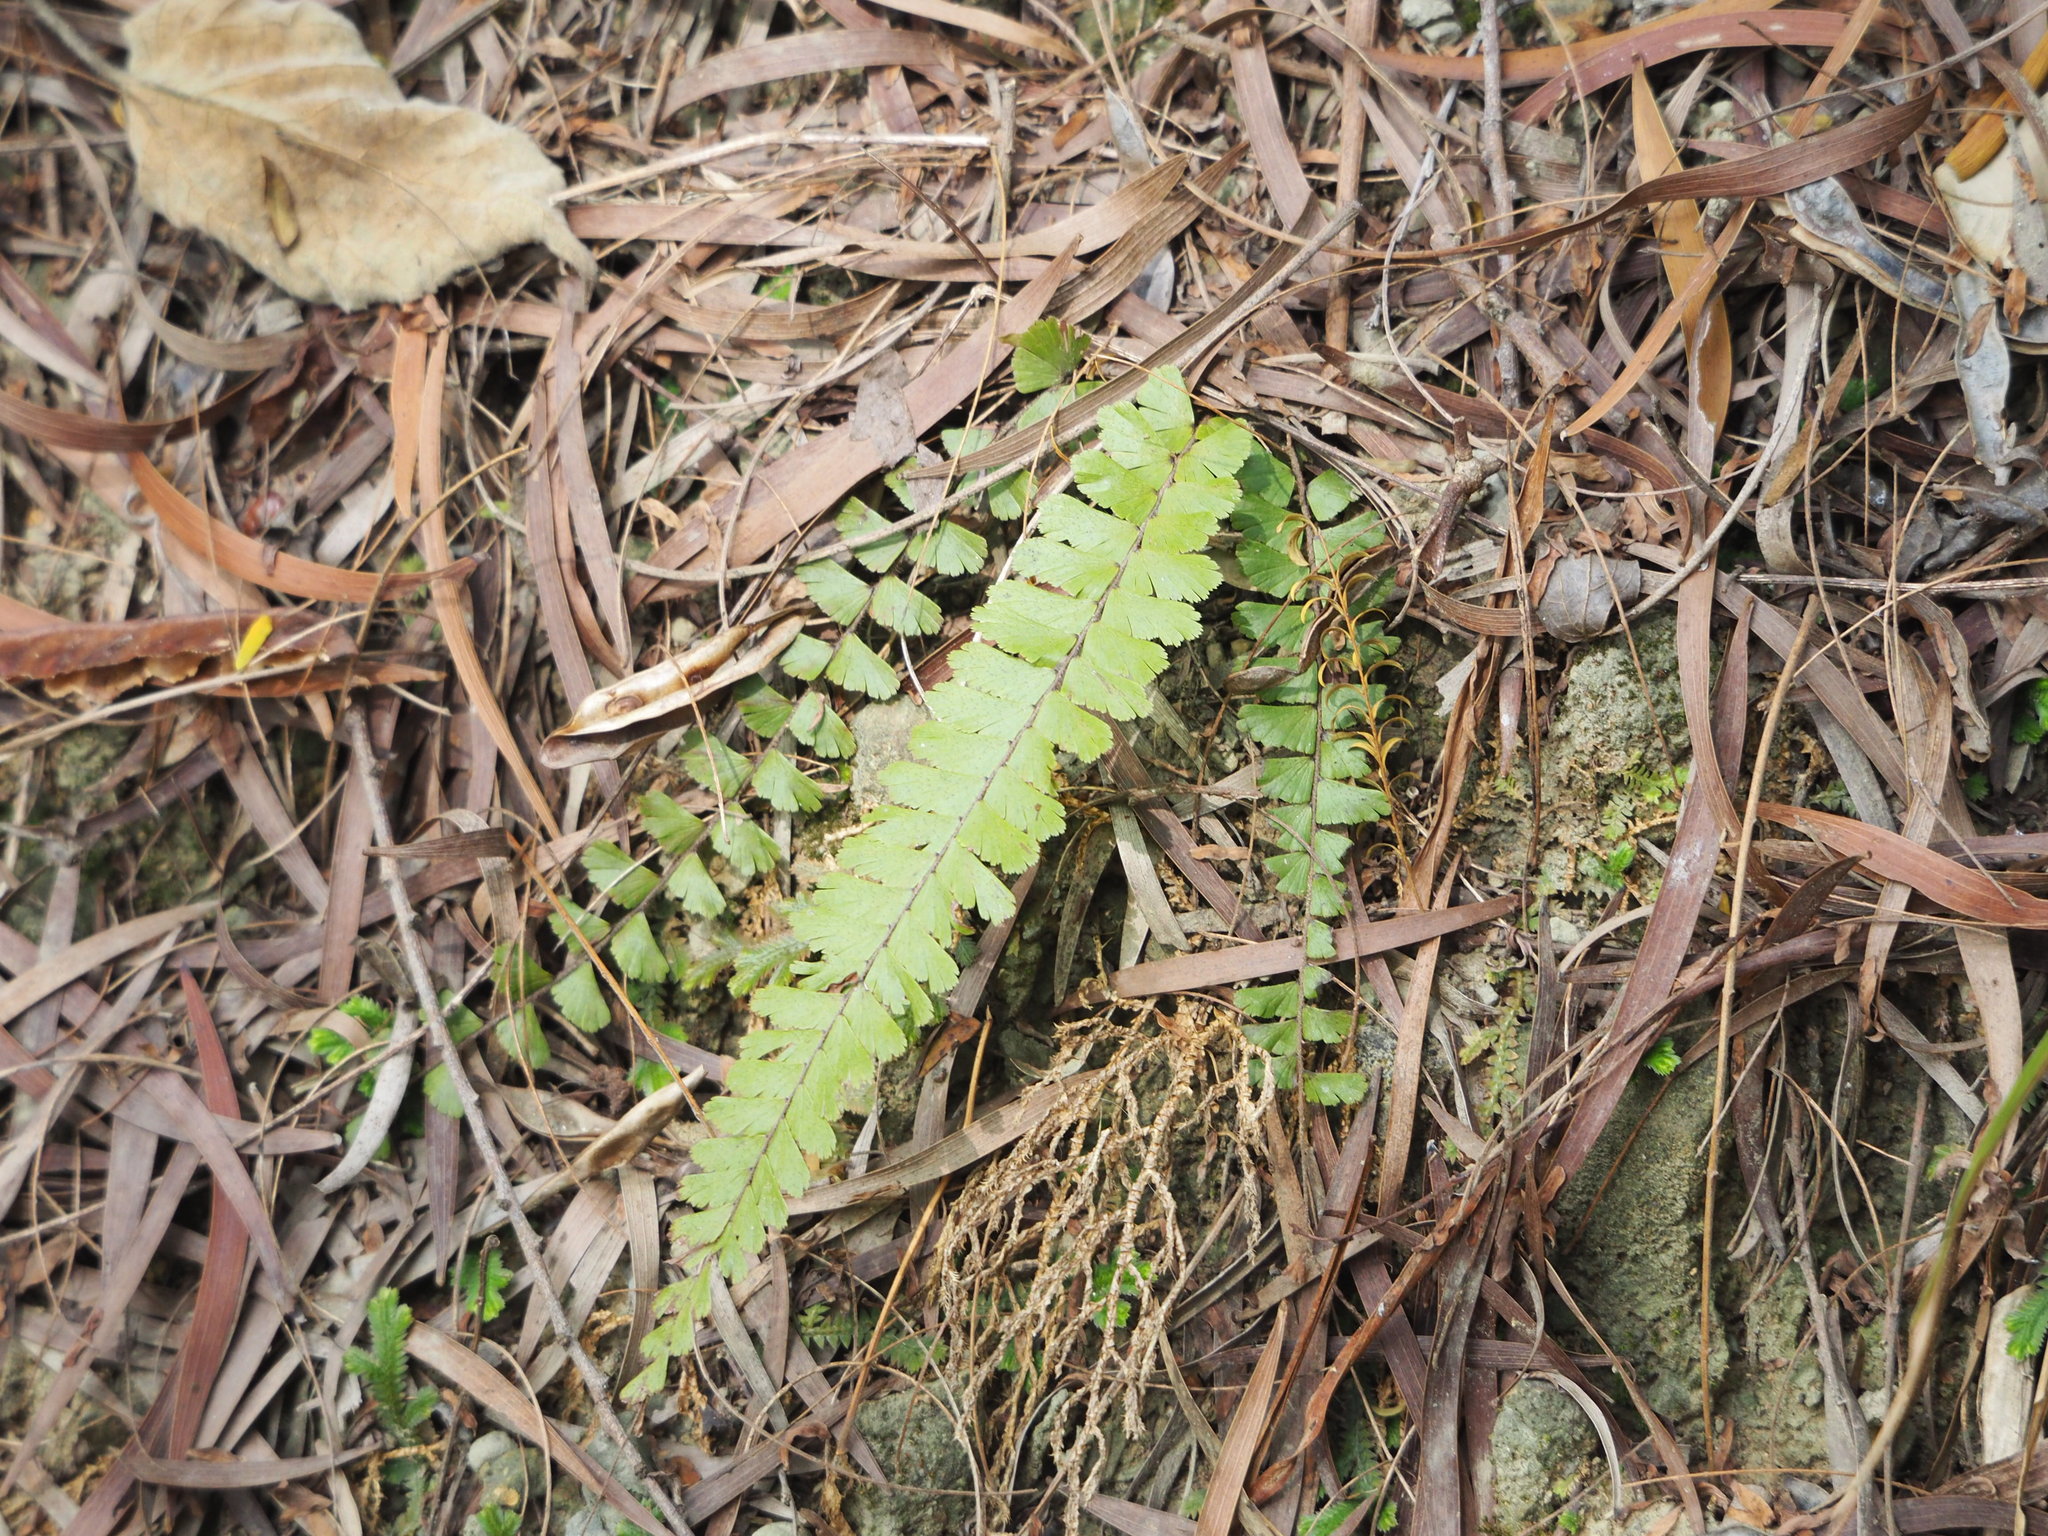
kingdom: Plantae
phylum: Tracheophyta
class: Polypodiopsida
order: Polypodiales
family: Pteridaceae
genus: Adiantum
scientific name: Adiantum ciliatum
